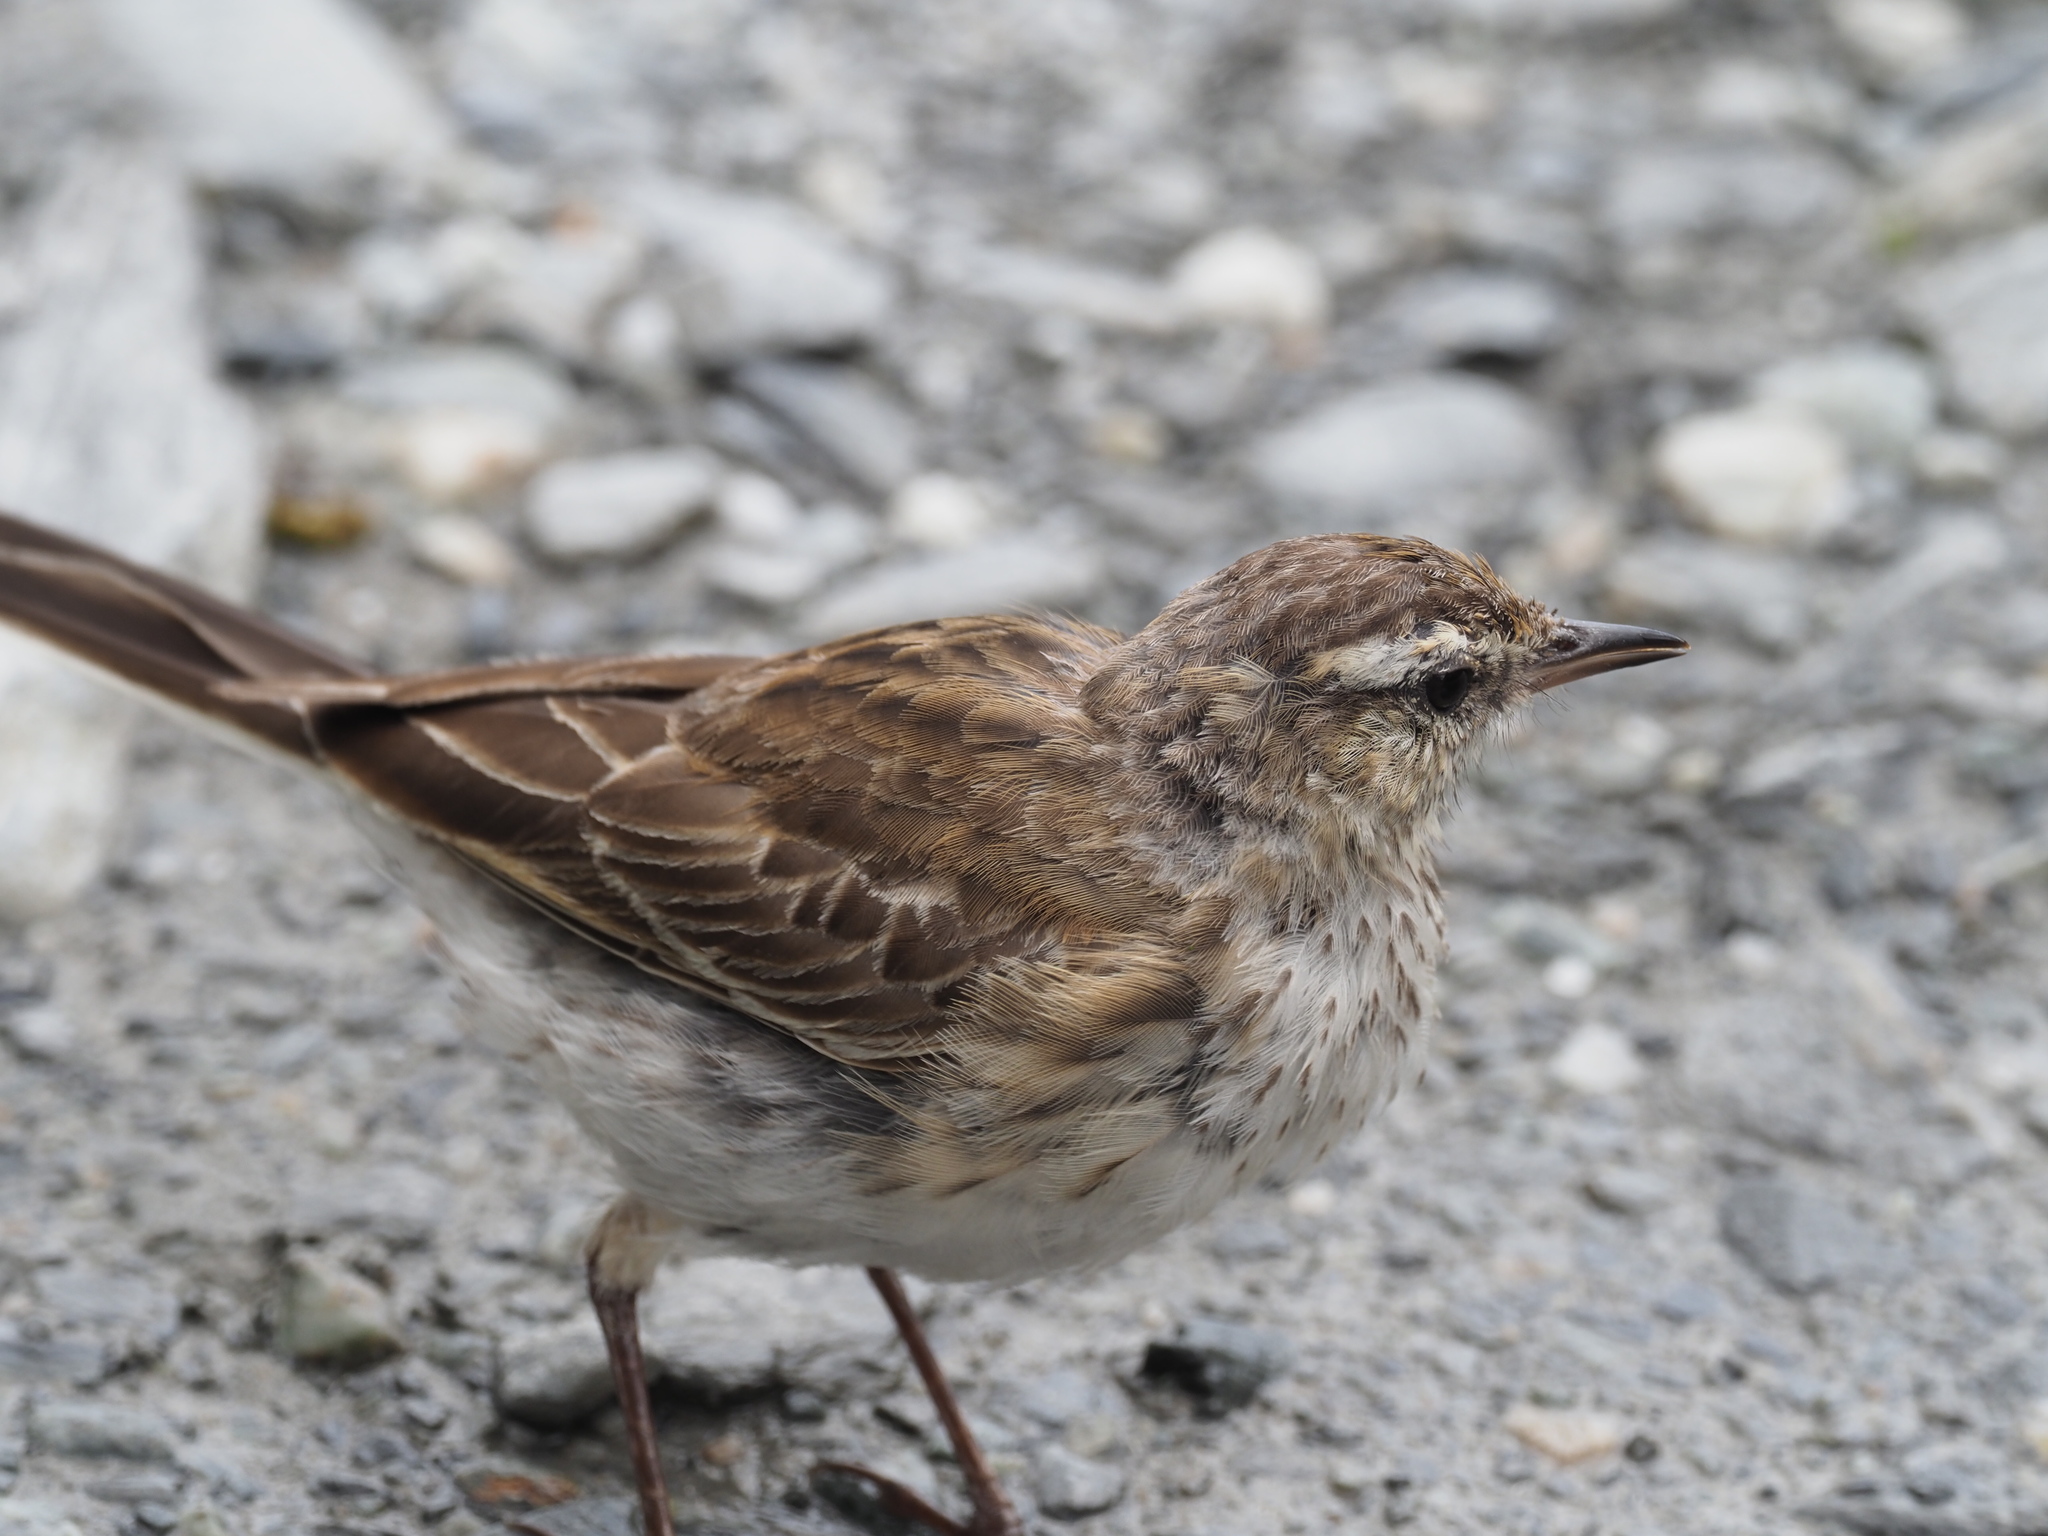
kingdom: Animalia
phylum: Chordata
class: Aves
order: Passeriformes
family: Motacillidae
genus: Anthus
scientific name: Anthus novaeseelandiae
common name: New zealand pipit
